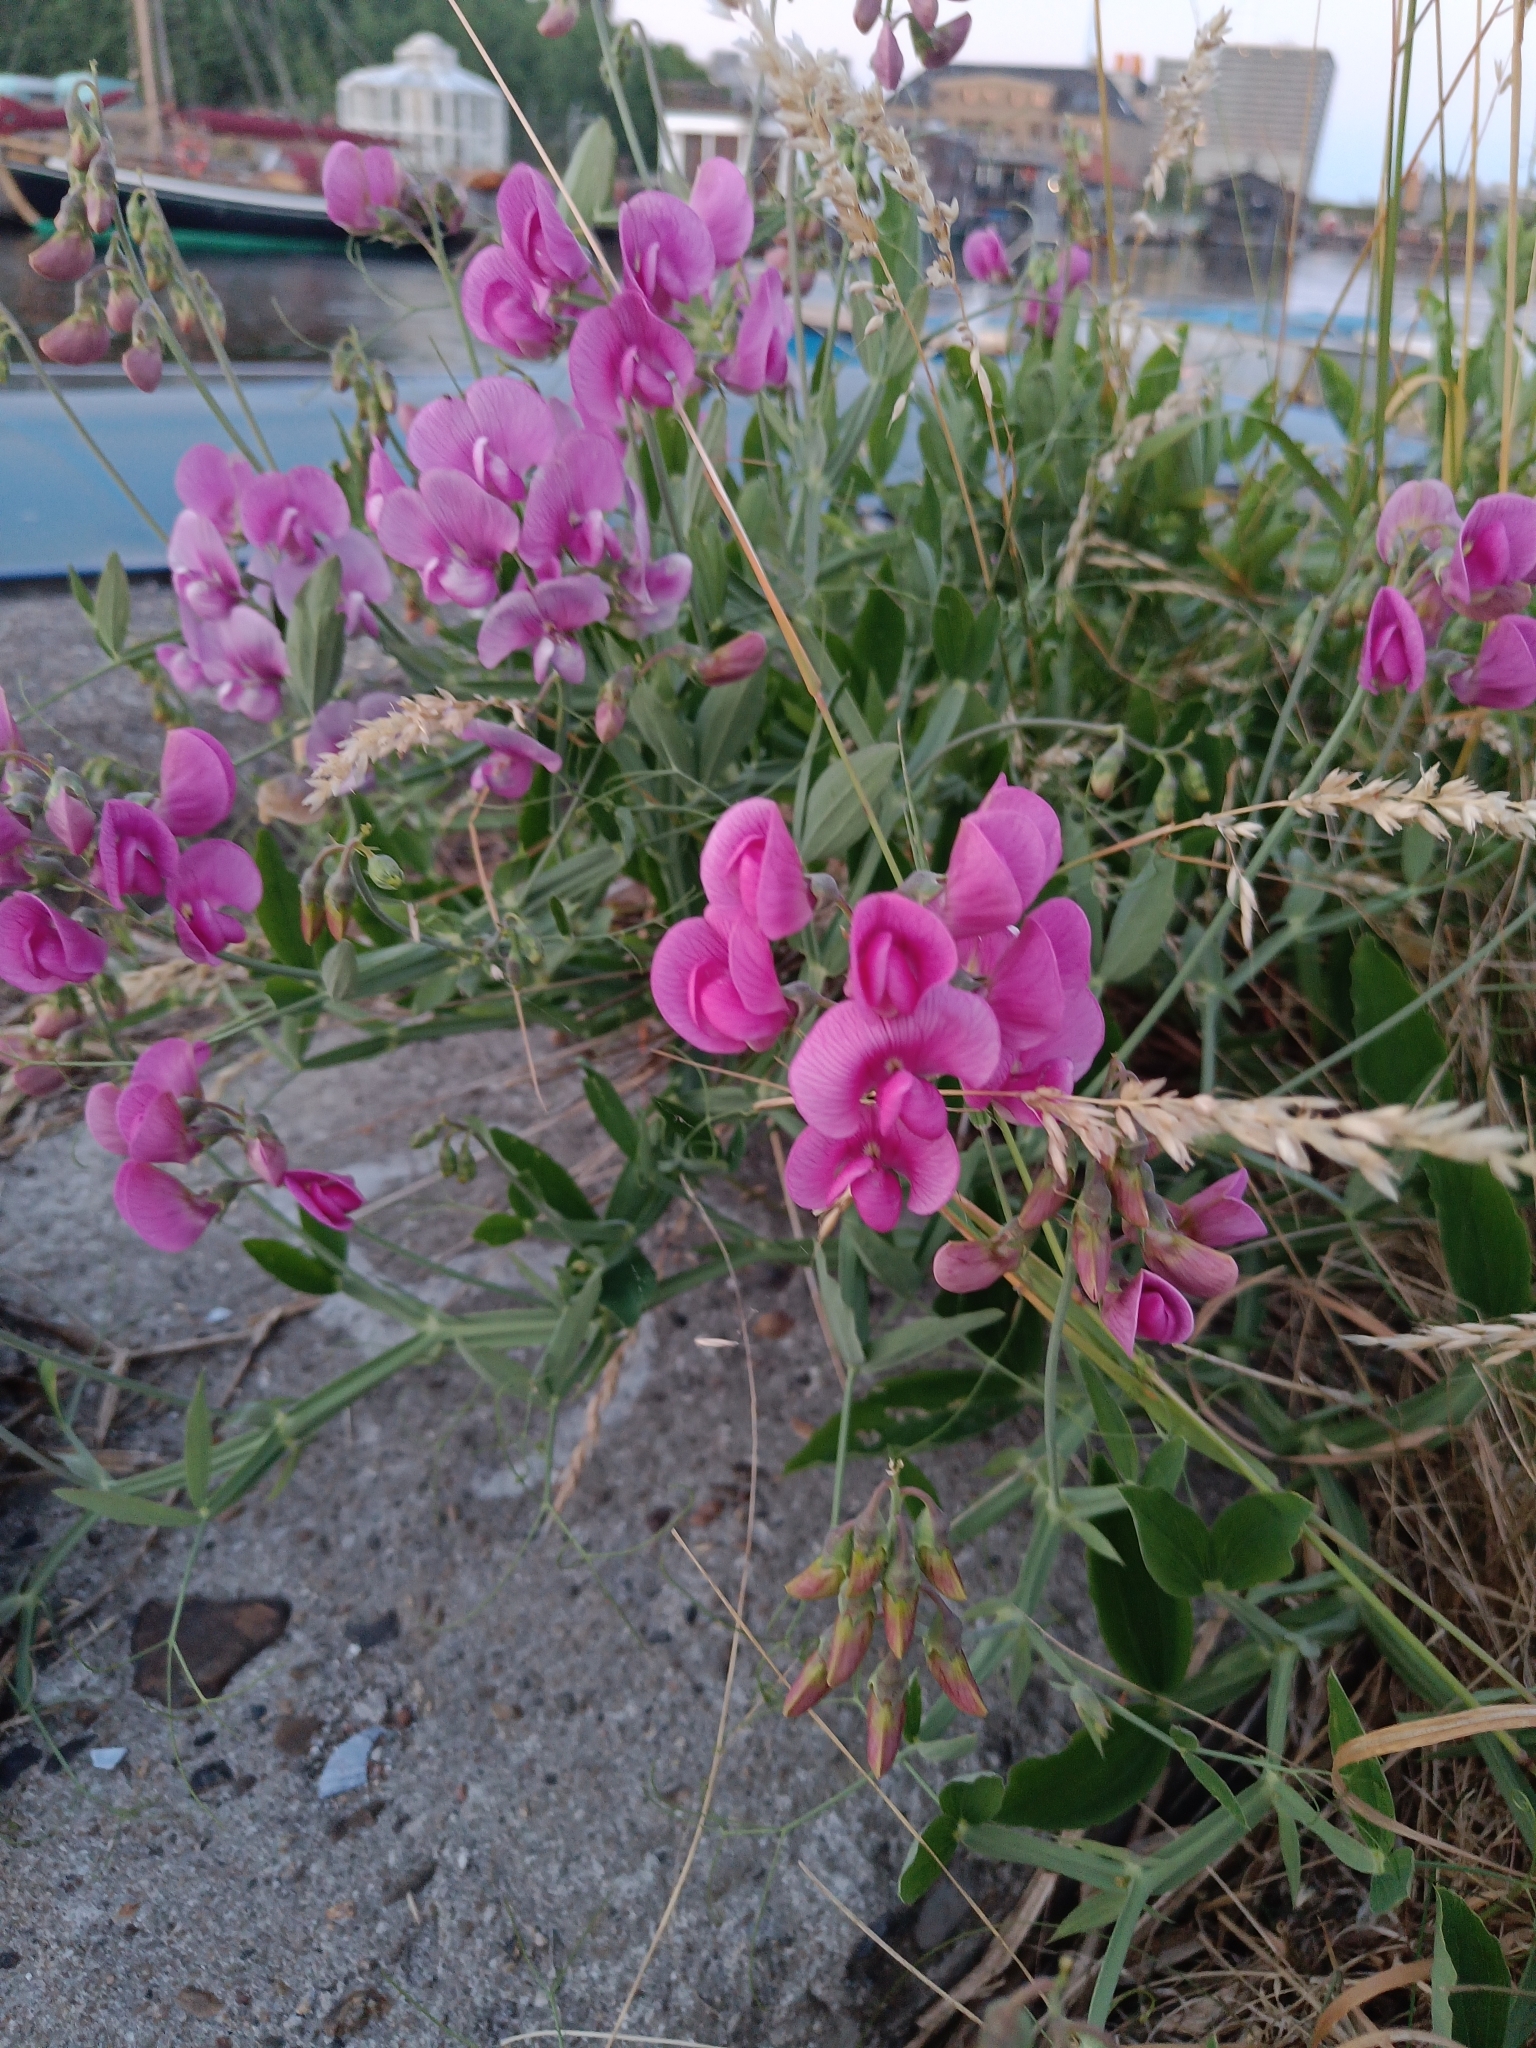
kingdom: Plantae
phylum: Tracheophyta
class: Magnoliopsida
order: Fabales
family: Fabaceae
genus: Lathyrus
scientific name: Lathyrus latifolius
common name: Perennial pea
